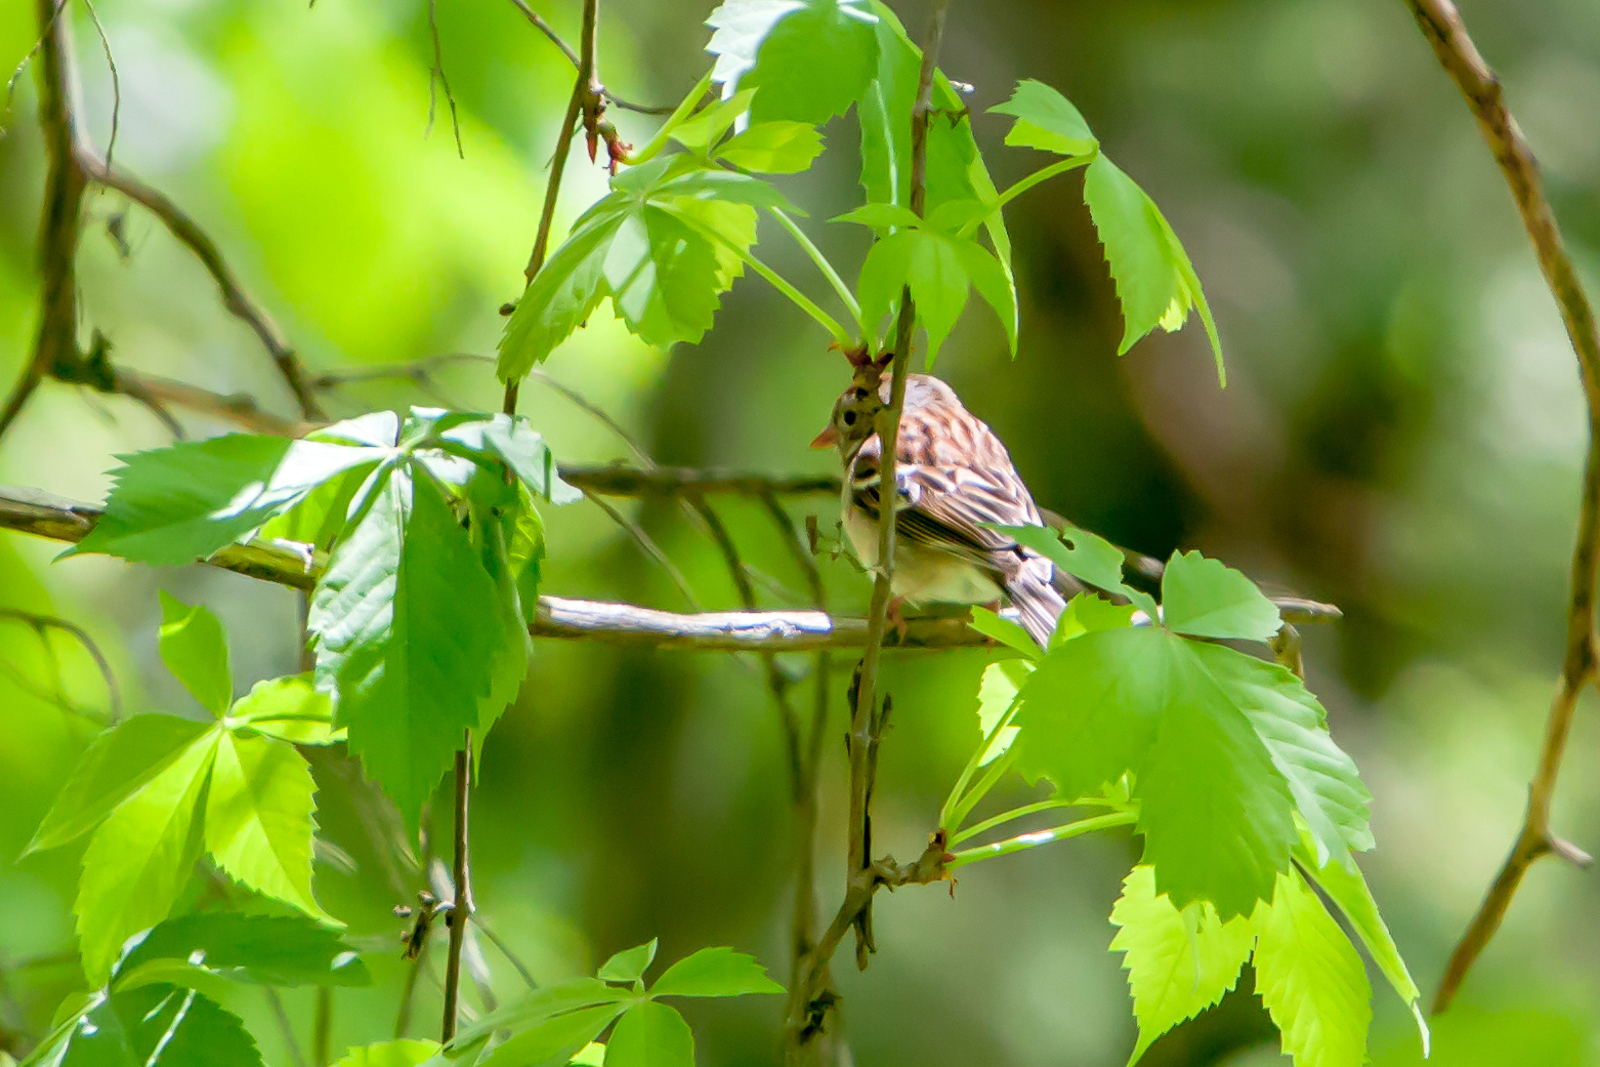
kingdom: Animalia
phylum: Chordata
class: Aves
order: Passeriformes
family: Passerellidae
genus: Spizella
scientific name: Spizella pusilla
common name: Field sparrow
